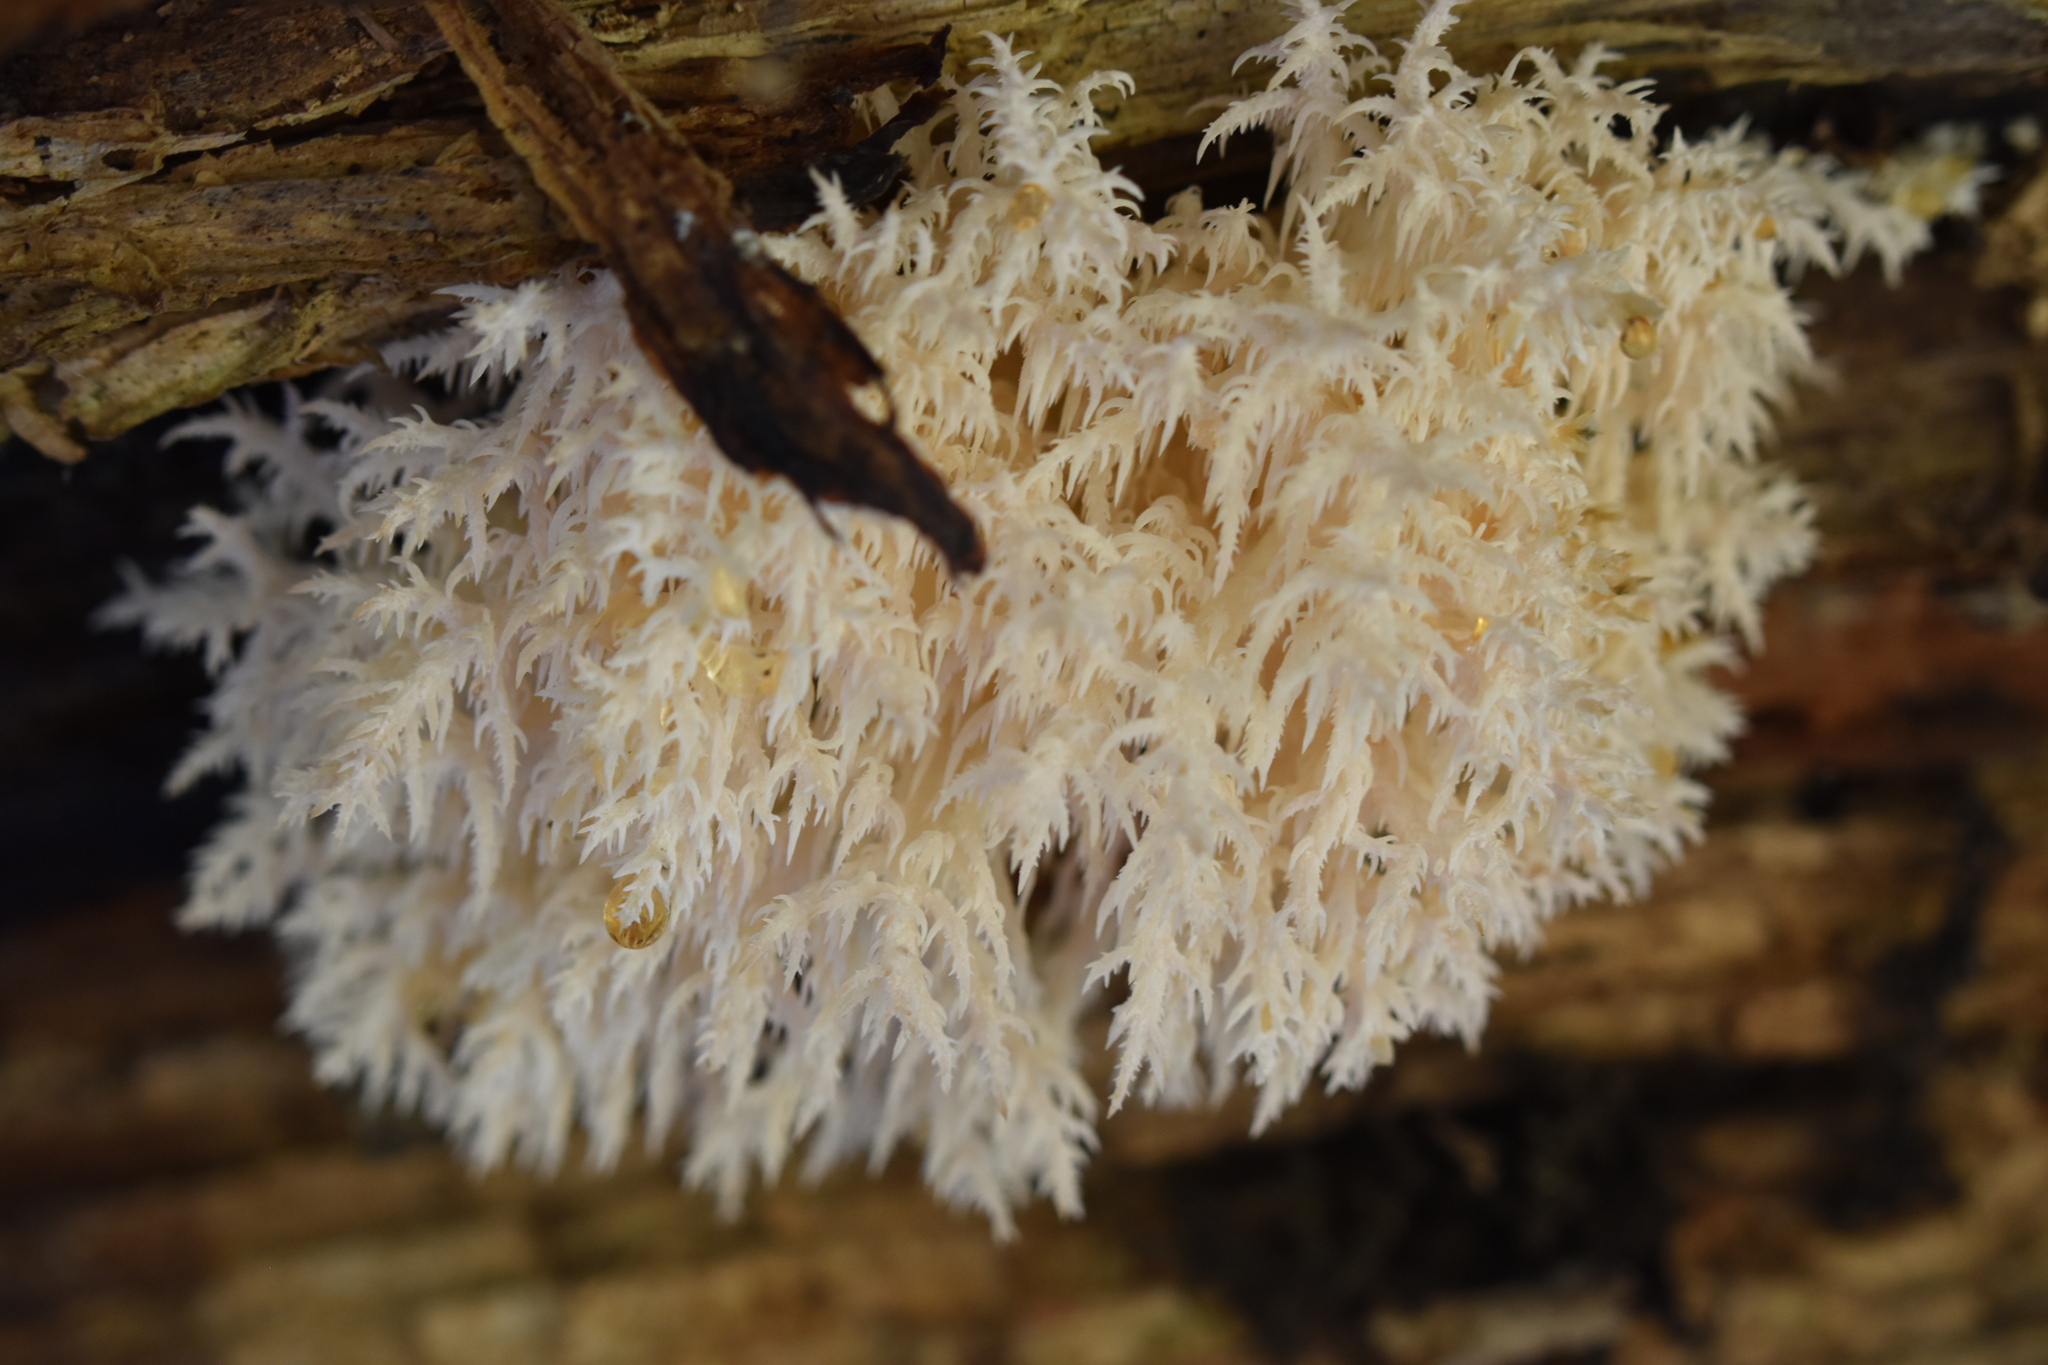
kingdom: Fungi
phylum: Basidiomycota
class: Agaricomycetes
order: Russulales
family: Hericiaceae
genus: Hericium
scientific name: Hericium novae-zealandiae
